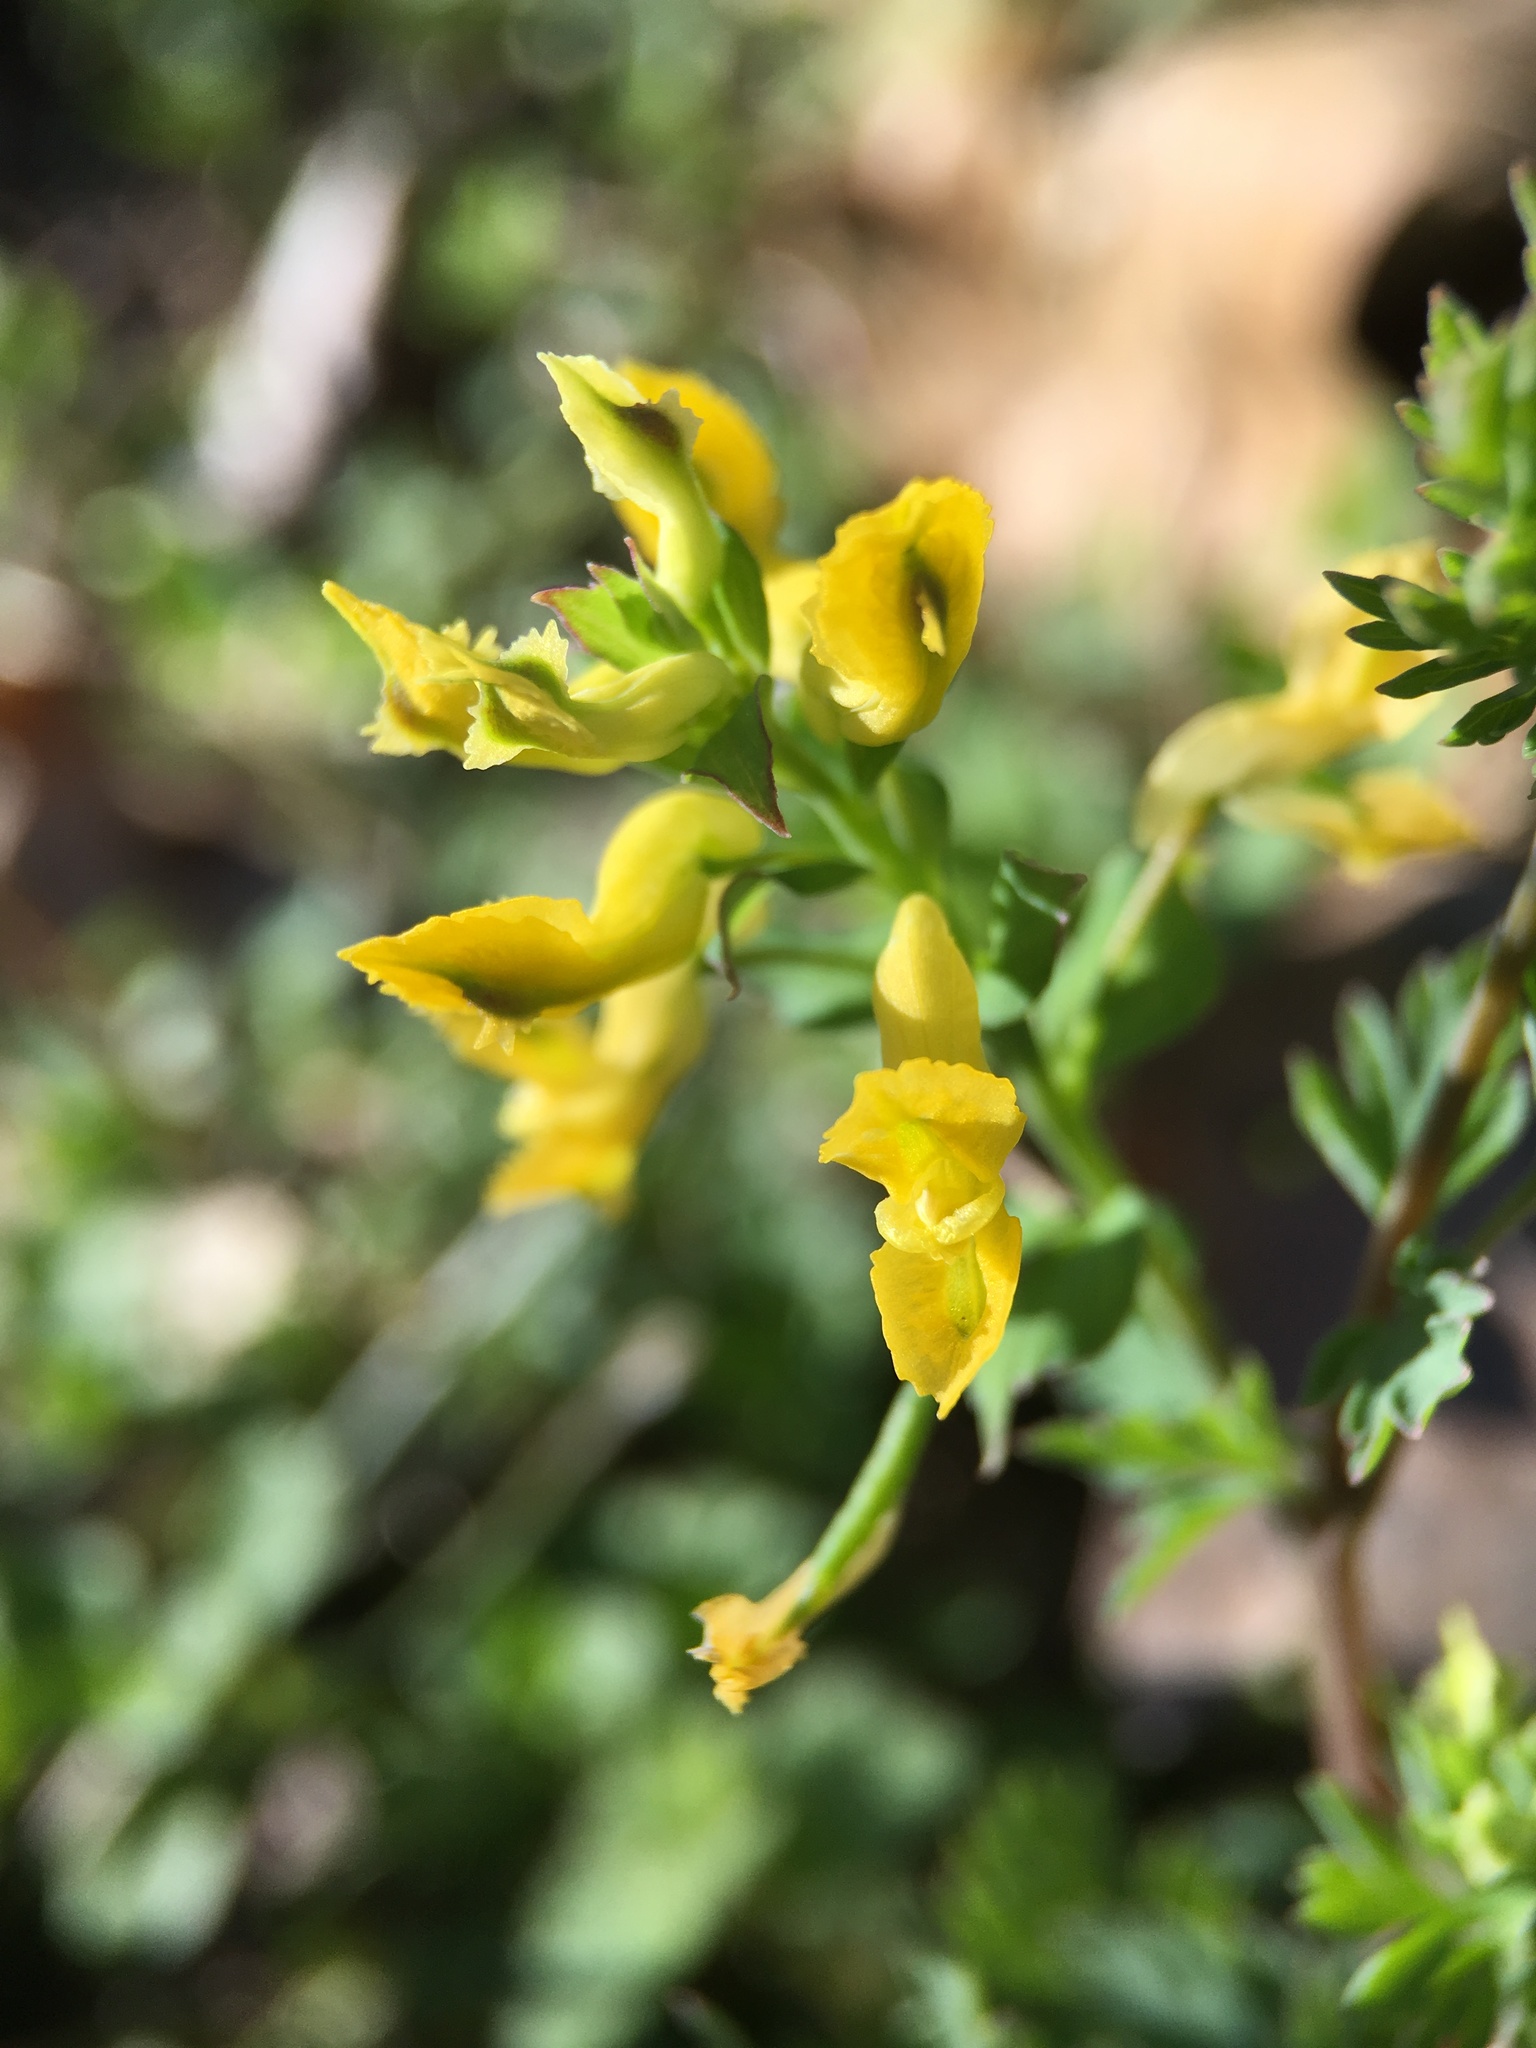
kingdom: Plantae
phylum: Tracheophyta
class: Magnoliopsida
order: Ranunculales
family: Papaveraceae
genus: Corydalis
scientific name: Corydalis flavula
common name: Yellow corydalis
